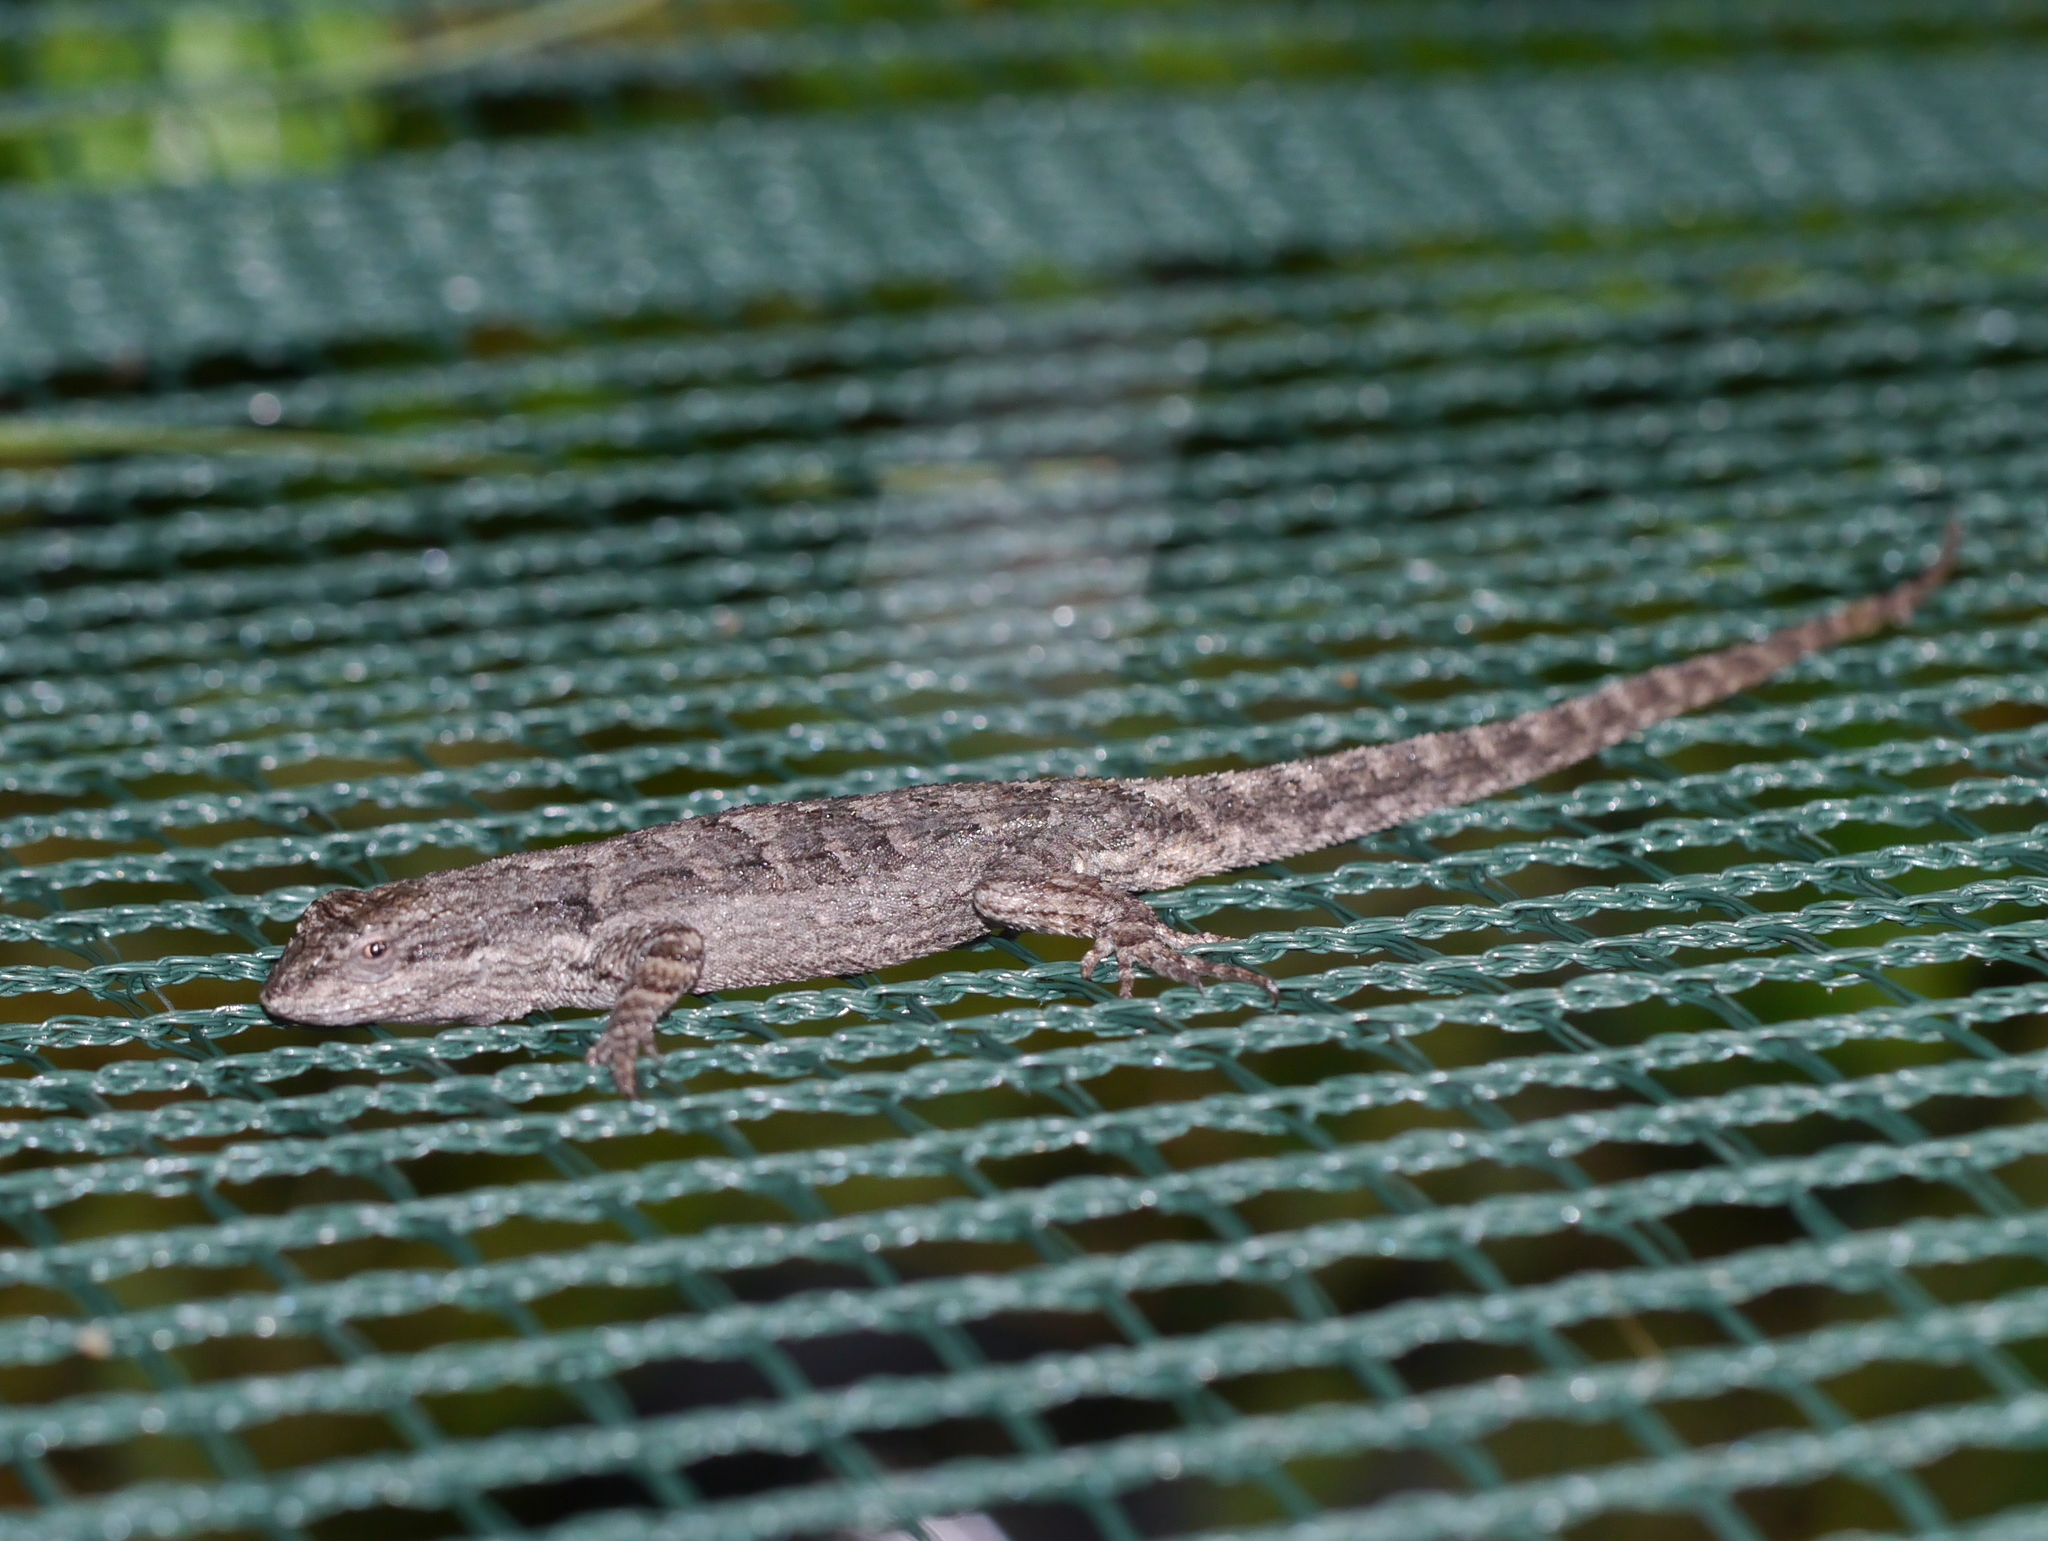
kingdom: Animalia
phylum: Chordata
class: Squamata
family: Phrynosomatidae
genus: Urosaurus
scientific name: Urosaurus ornatus
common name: Ornate tree lizard
